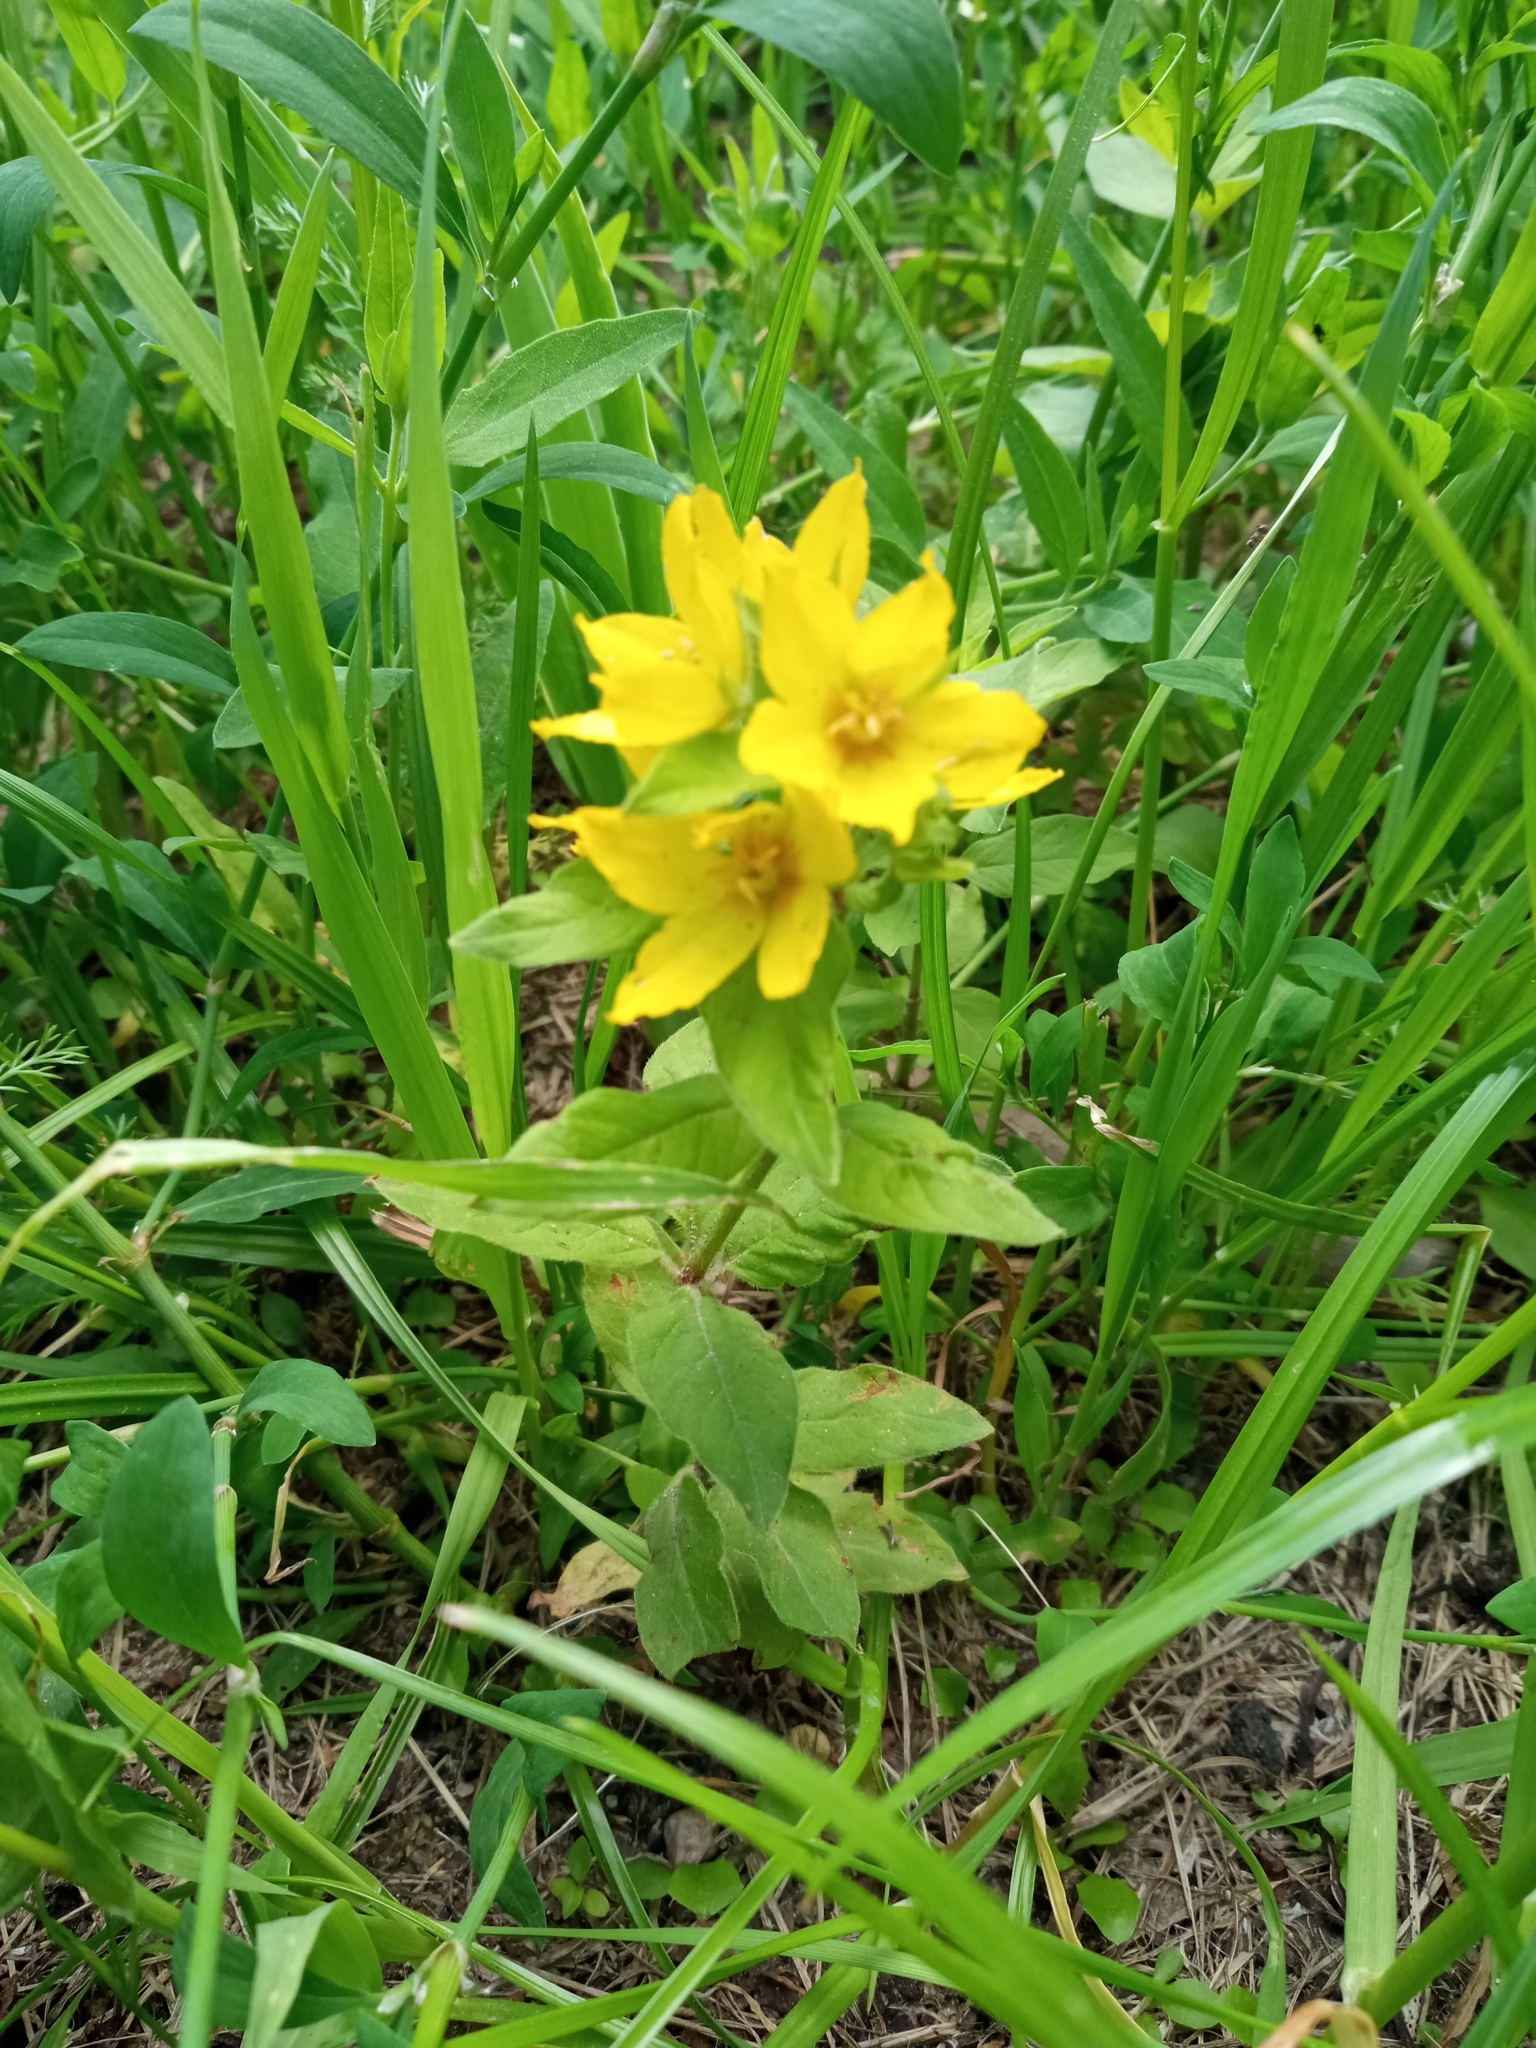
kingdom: Plantae
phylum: Tracheophyta
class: Magnoliopsida
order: Ericales
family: Primulaceae
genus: Lysimachia
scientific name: Lysimachia punctata
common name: Dotted loosestrife
